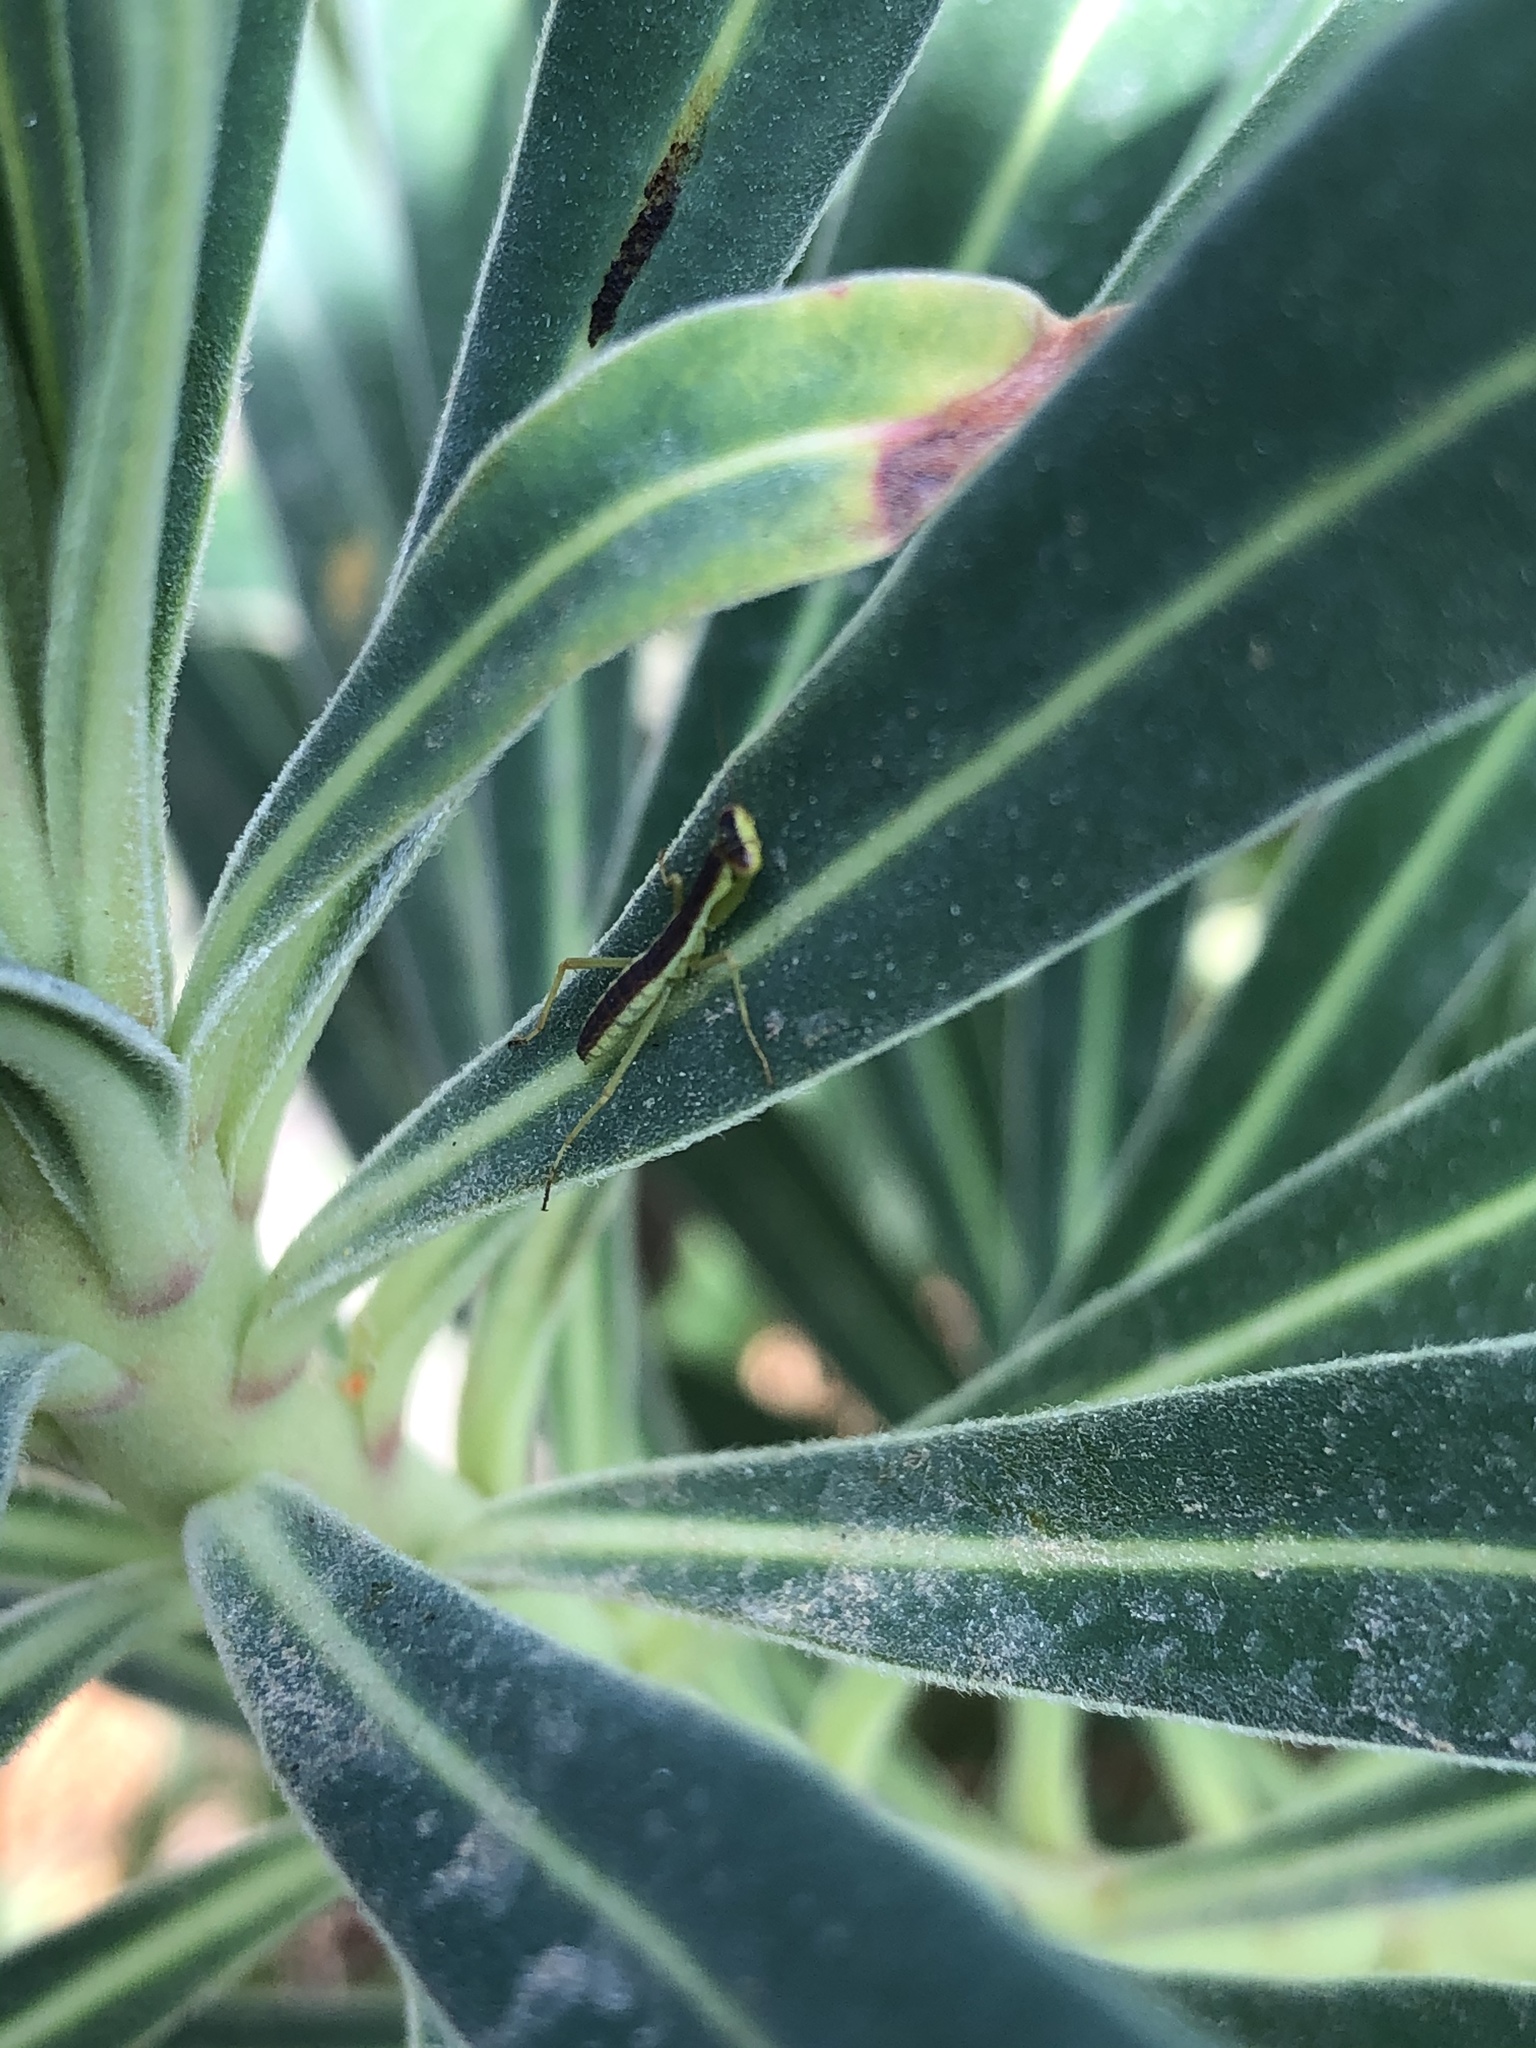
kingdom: Animalia
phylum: Arthropoda
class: Insecta
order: Mantodea
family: Mantidae
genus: Orthodera
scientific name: Orthodera novaezealandiae
